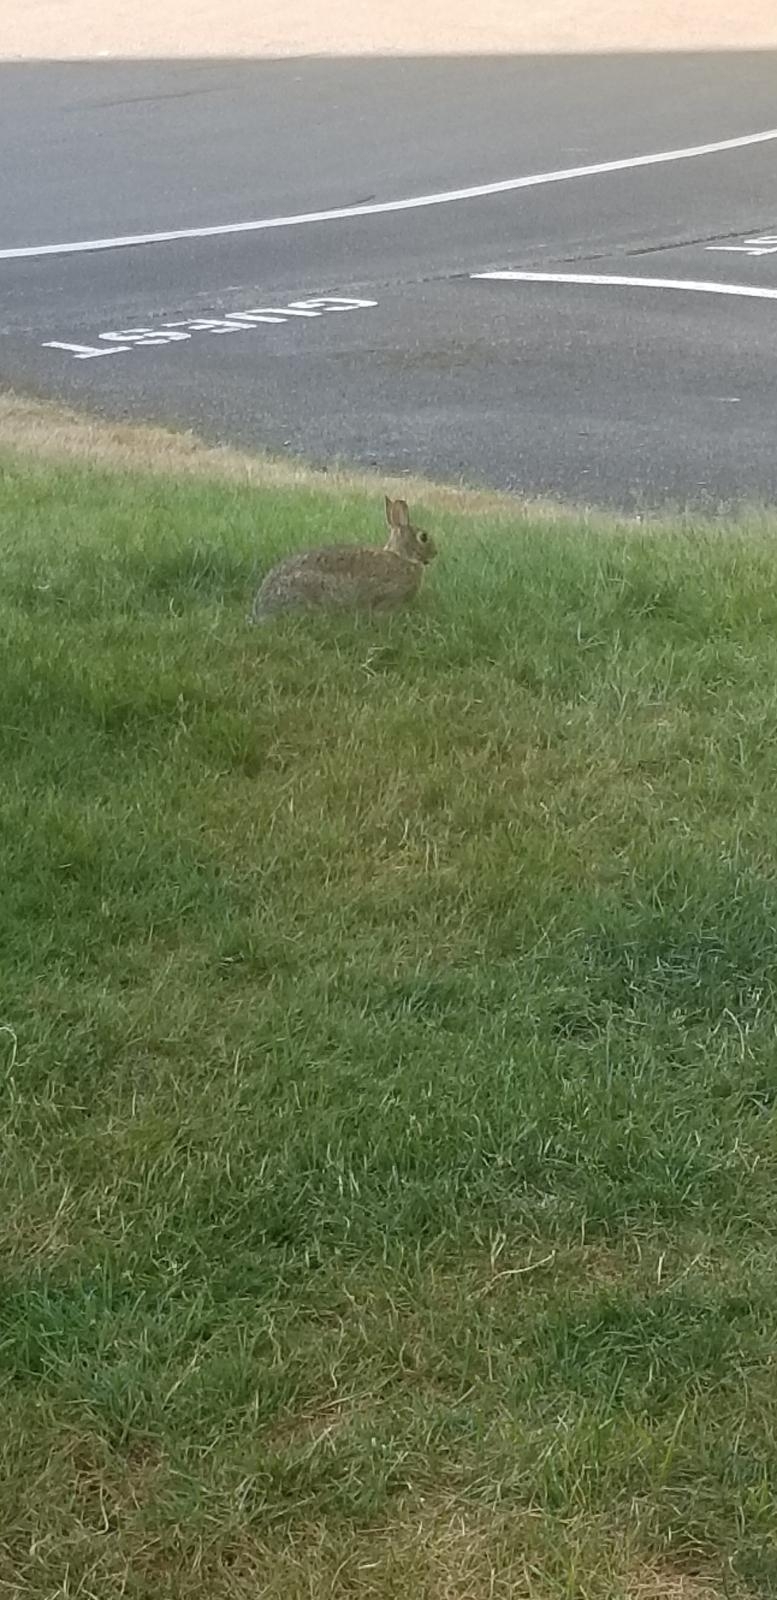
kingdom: Animalia
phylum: Chordata
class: Mammalia
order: Lagomorpha
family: Leporidae
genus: Sylvilagus
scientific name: Sylvilagus floridanus
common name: Eastern cottontail
